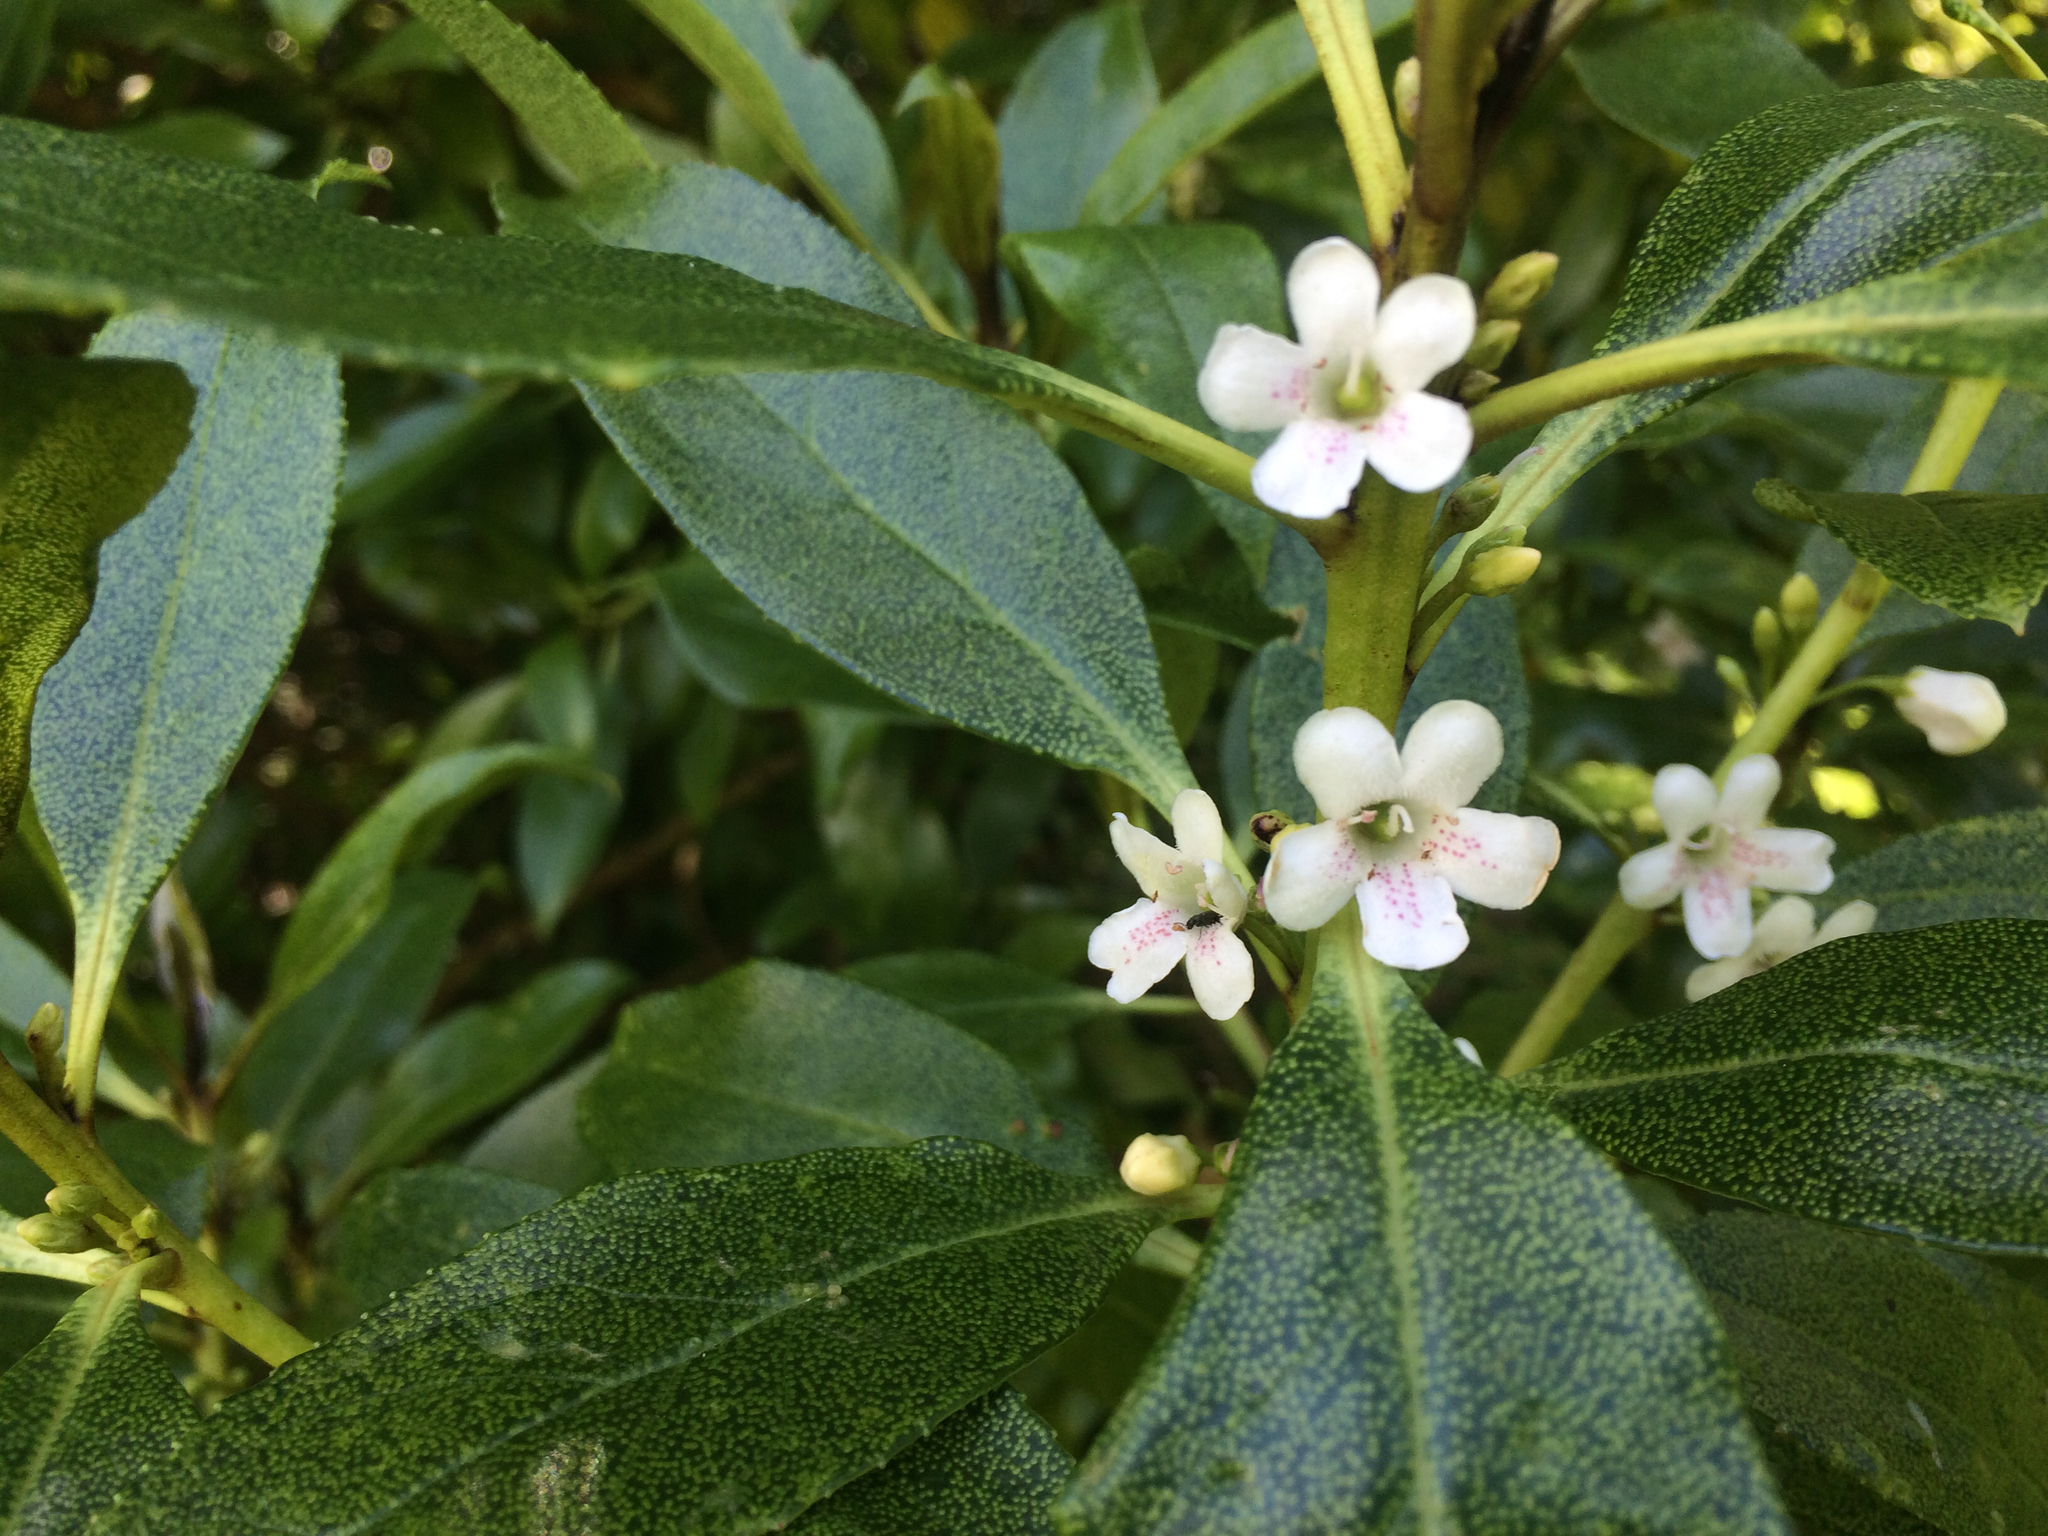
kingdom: Plantae
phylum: Tracheophyta
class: Magnoliopsida
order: Lamiales
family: Scrophulariaceae
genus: Myoporum
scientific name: Myoporum laetum
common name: Ngaio tree
